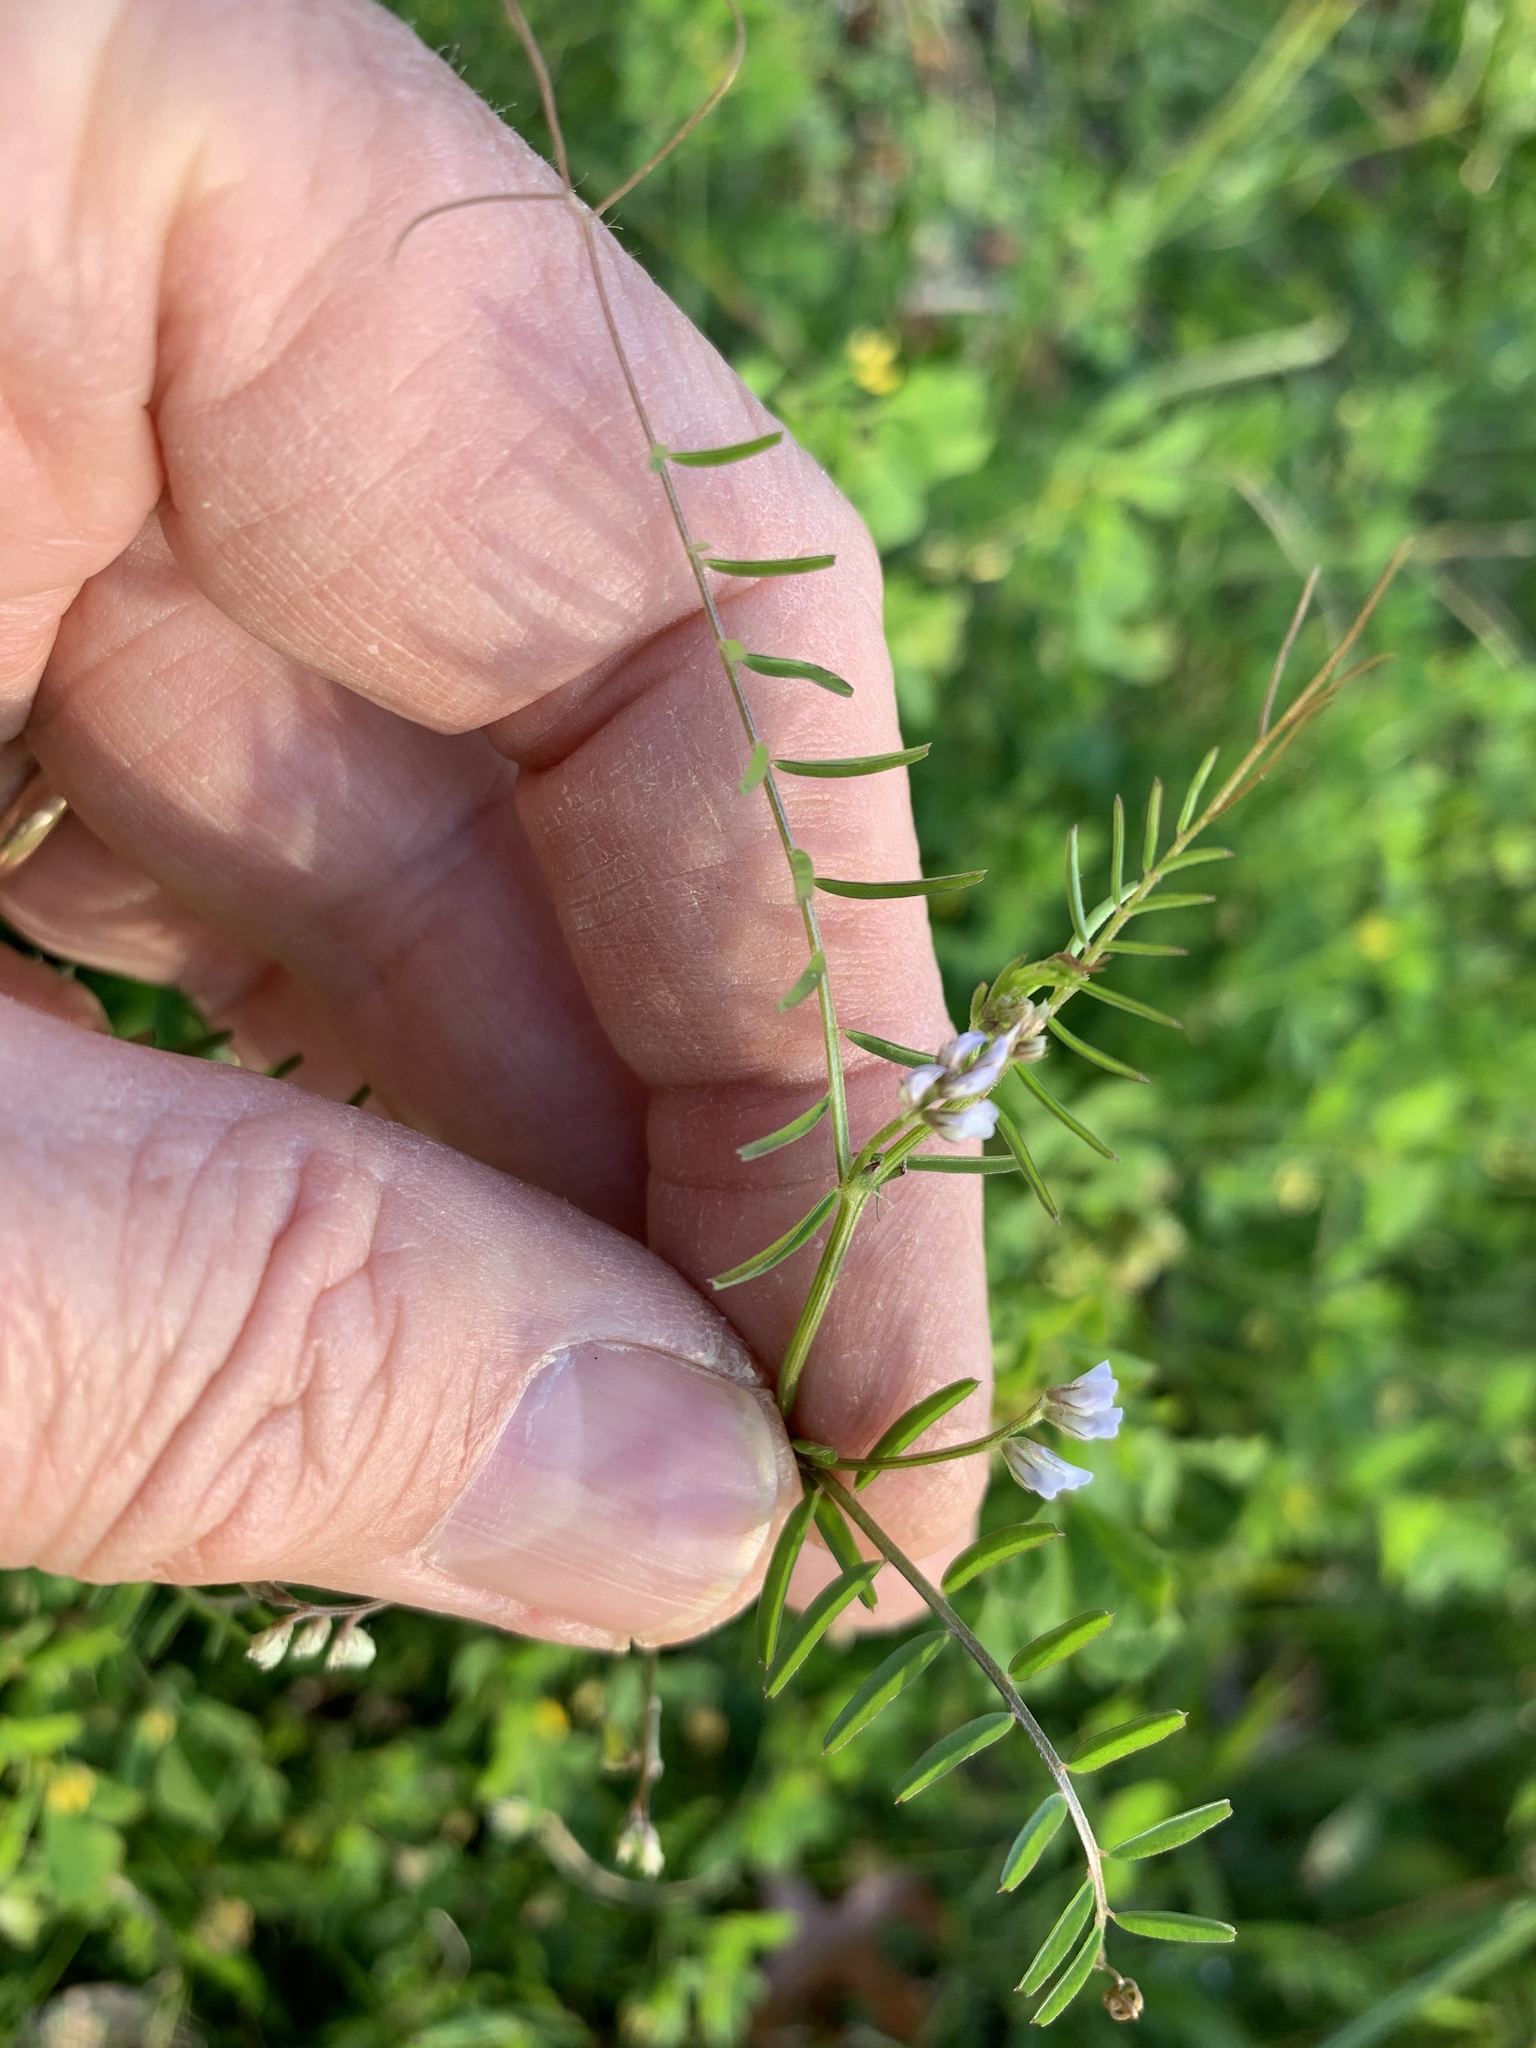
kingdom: Plantae
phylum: Tracheophyta
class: Magnoliopsida
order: Fabales
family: Fabaceae
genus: Vicia
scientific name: Vicia hirsuta
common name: Tiny vetch
